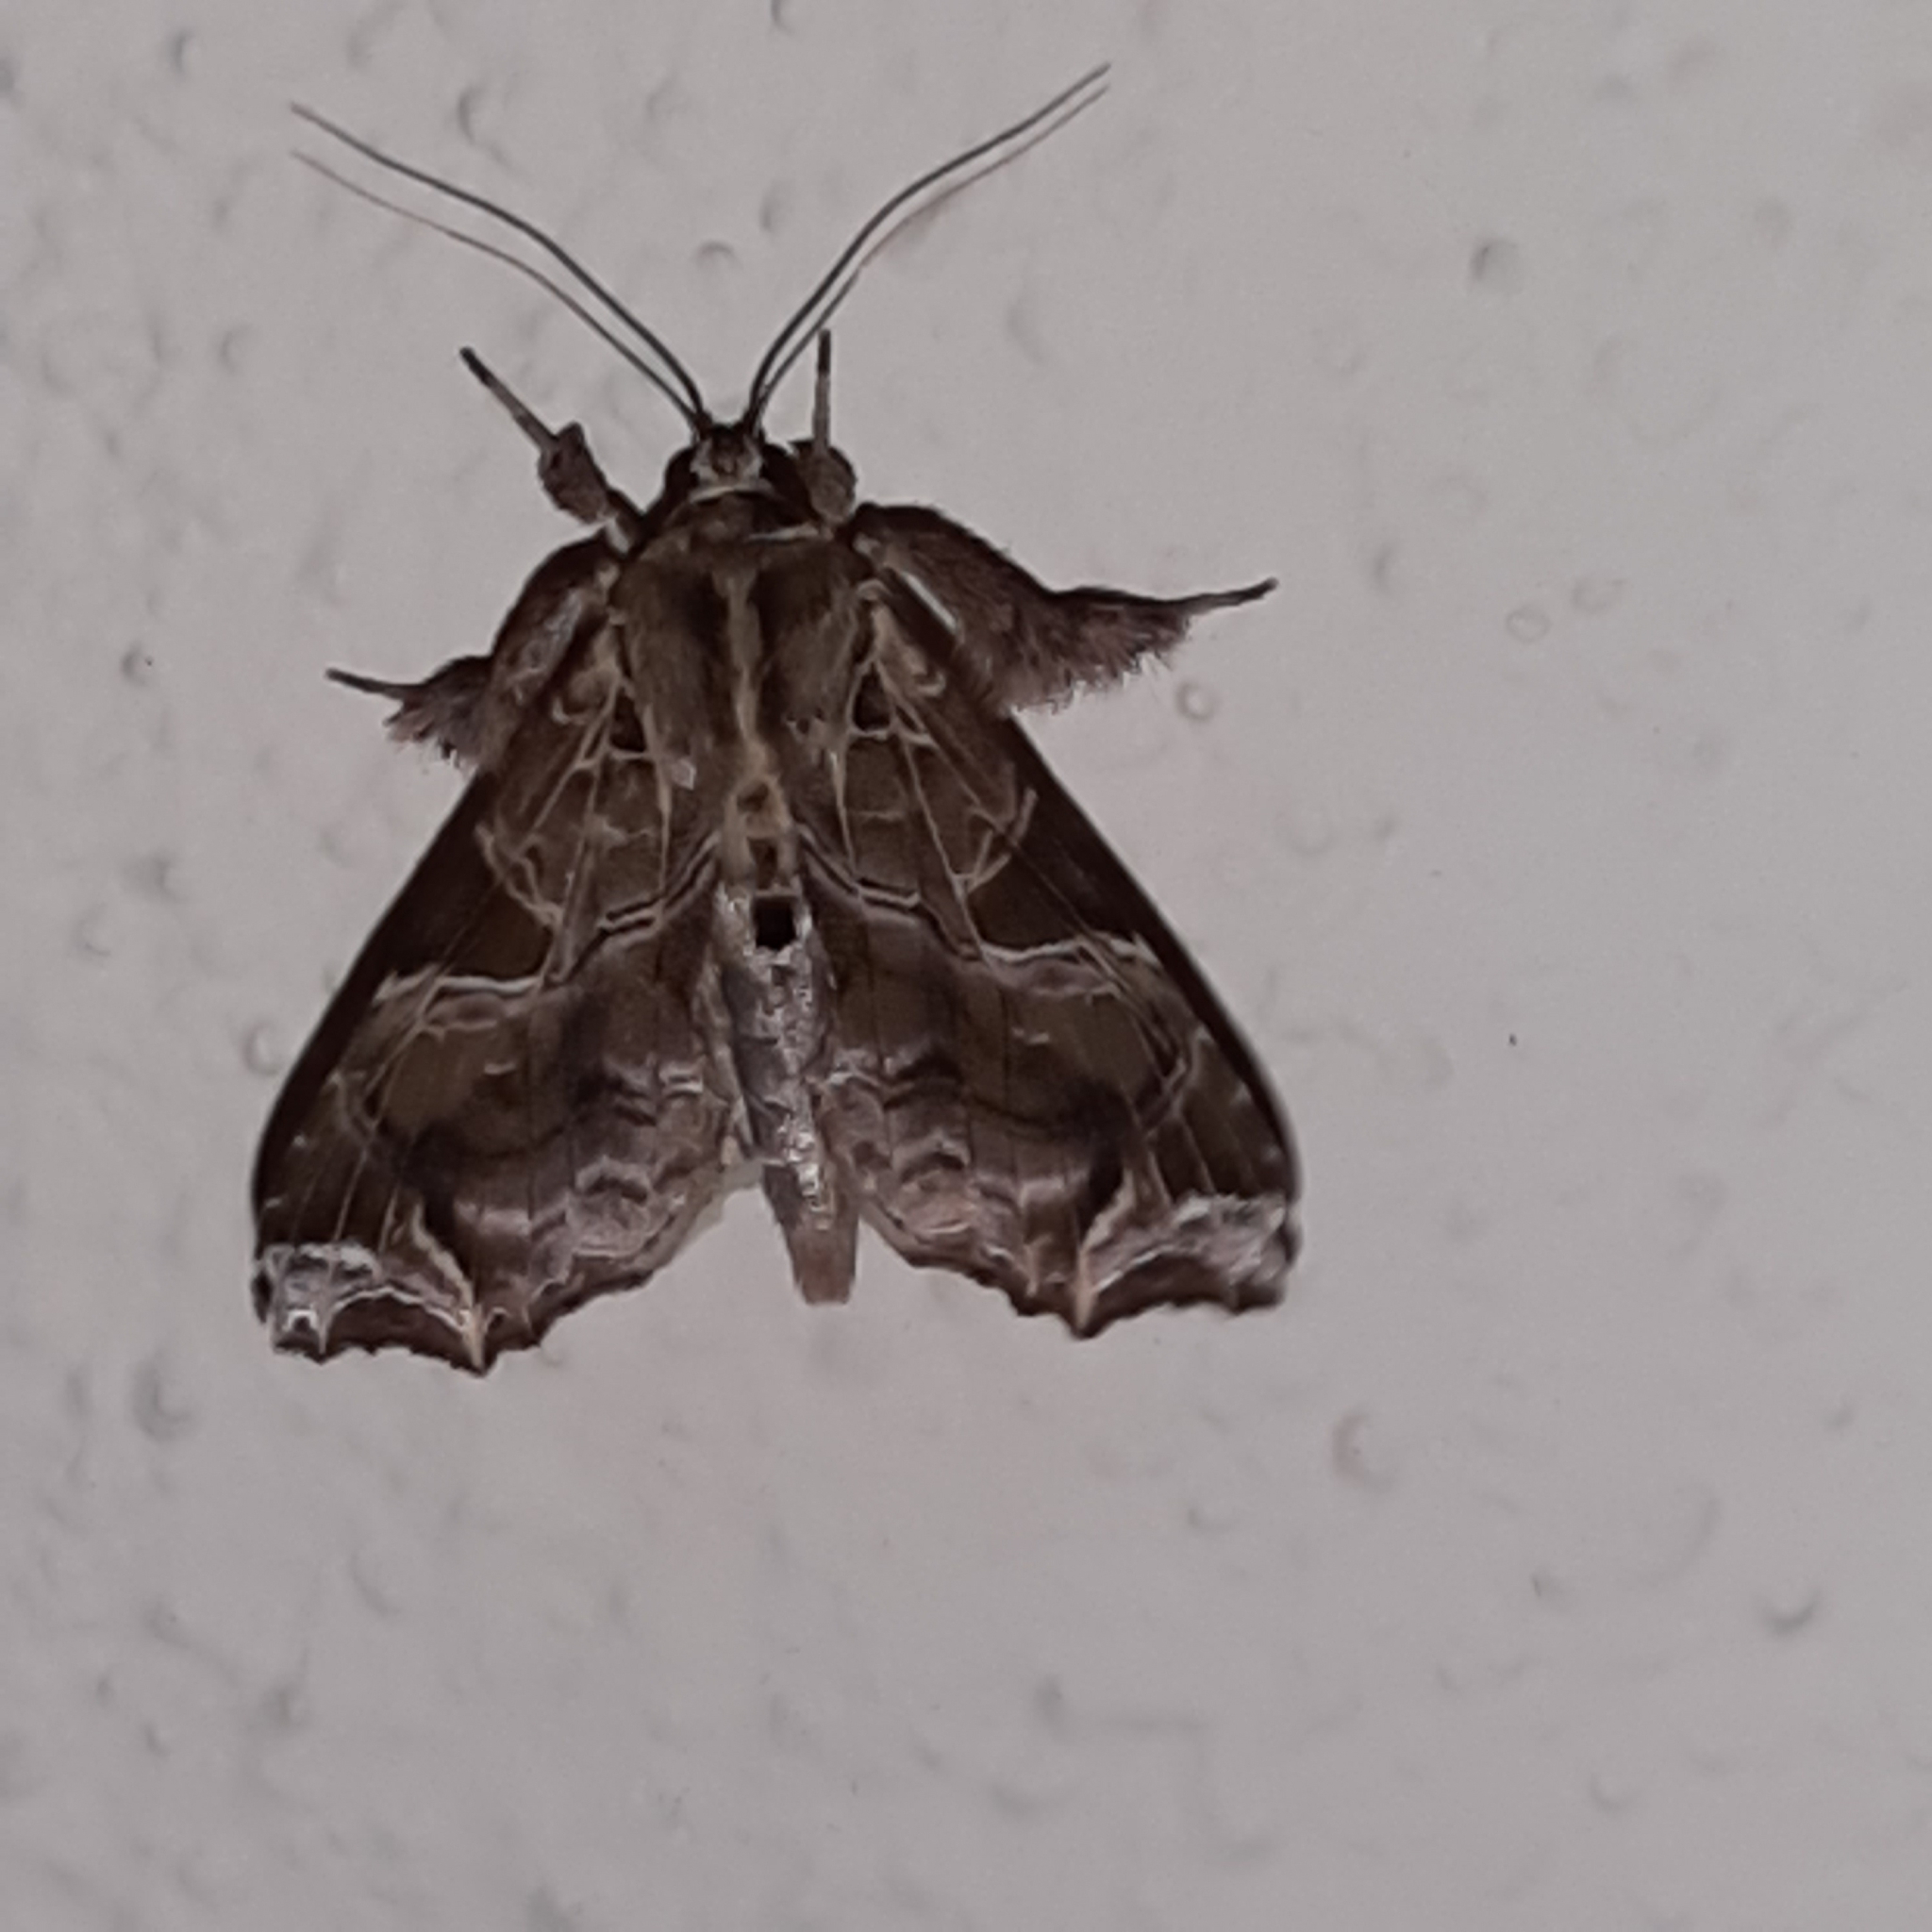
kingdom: Animalia
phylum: Arthropoda
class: Insecta
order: Lepidoptera
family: Noctuidae
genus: Callopistria
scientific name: Callopistria floridensis
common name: Florida fern moth
